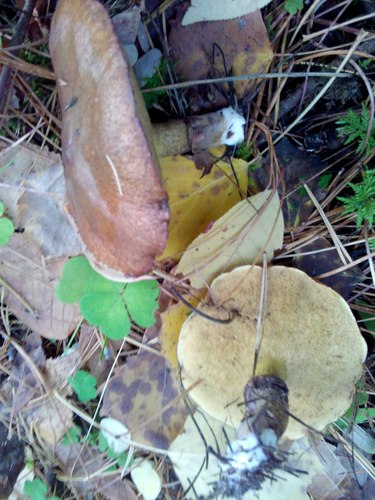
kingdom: Fungi
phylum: Basidiomycota
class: Agaricomycetes
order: Boletales
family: Suillaceae
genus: Suillus
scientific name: Suillus
